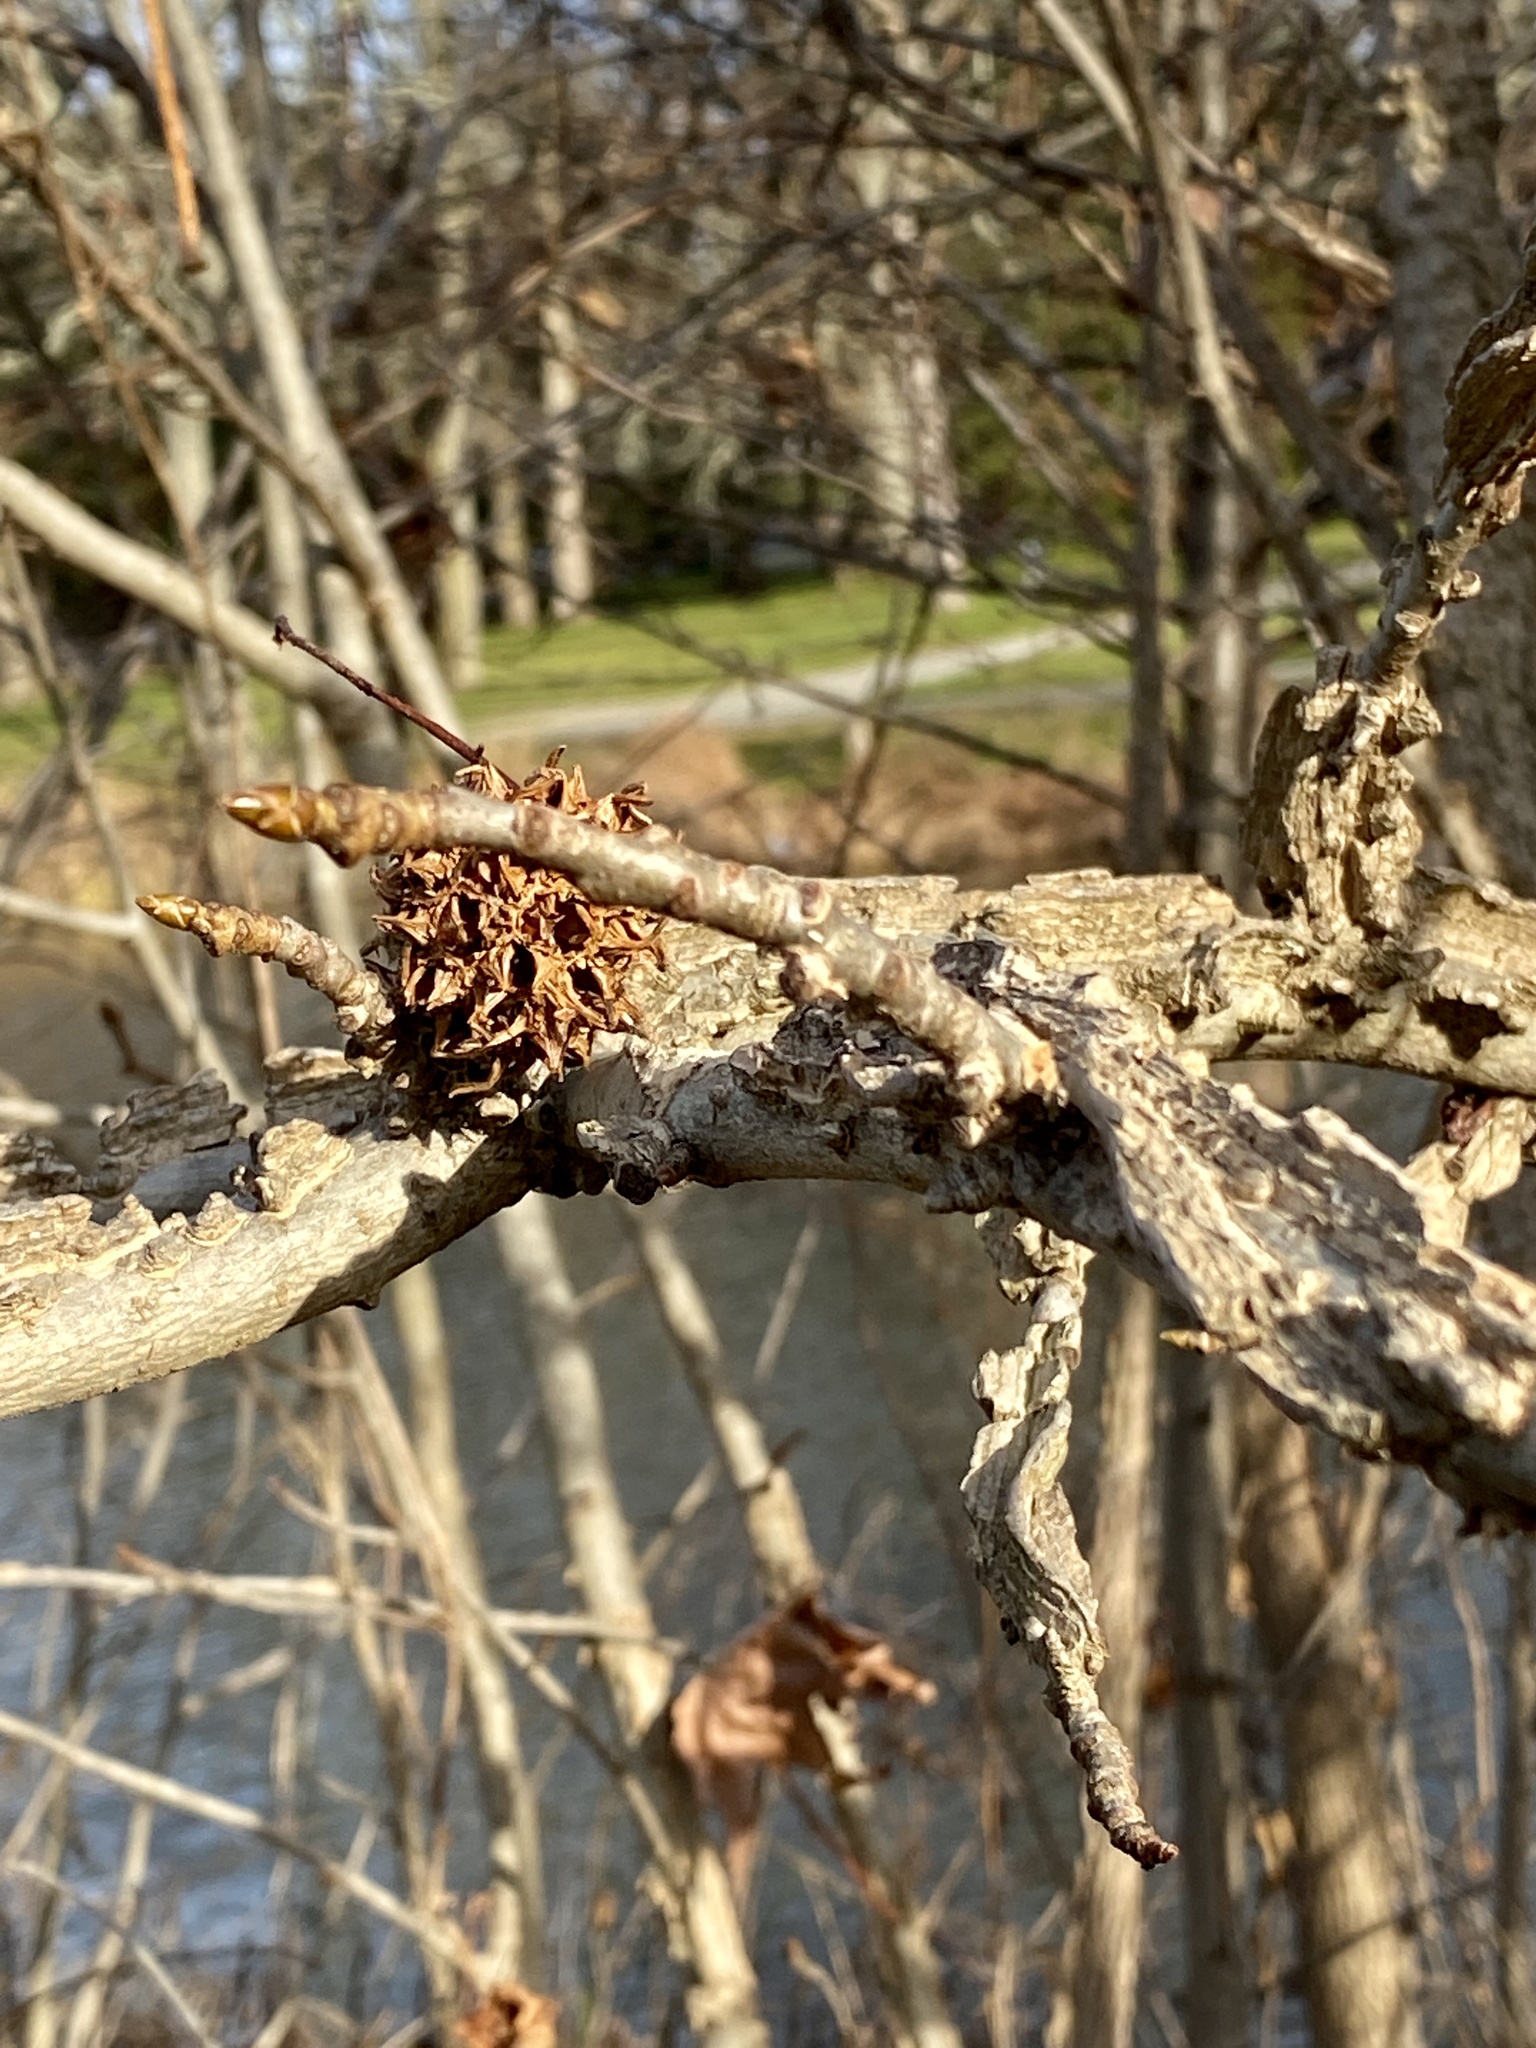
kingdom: Plantae
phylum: Tracheophyta
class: Magnoliopsida
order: Saxifragales
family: Altingiaceae
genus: Liquidambar
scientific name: Liquidambar styraciflua
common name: Sweet gum
